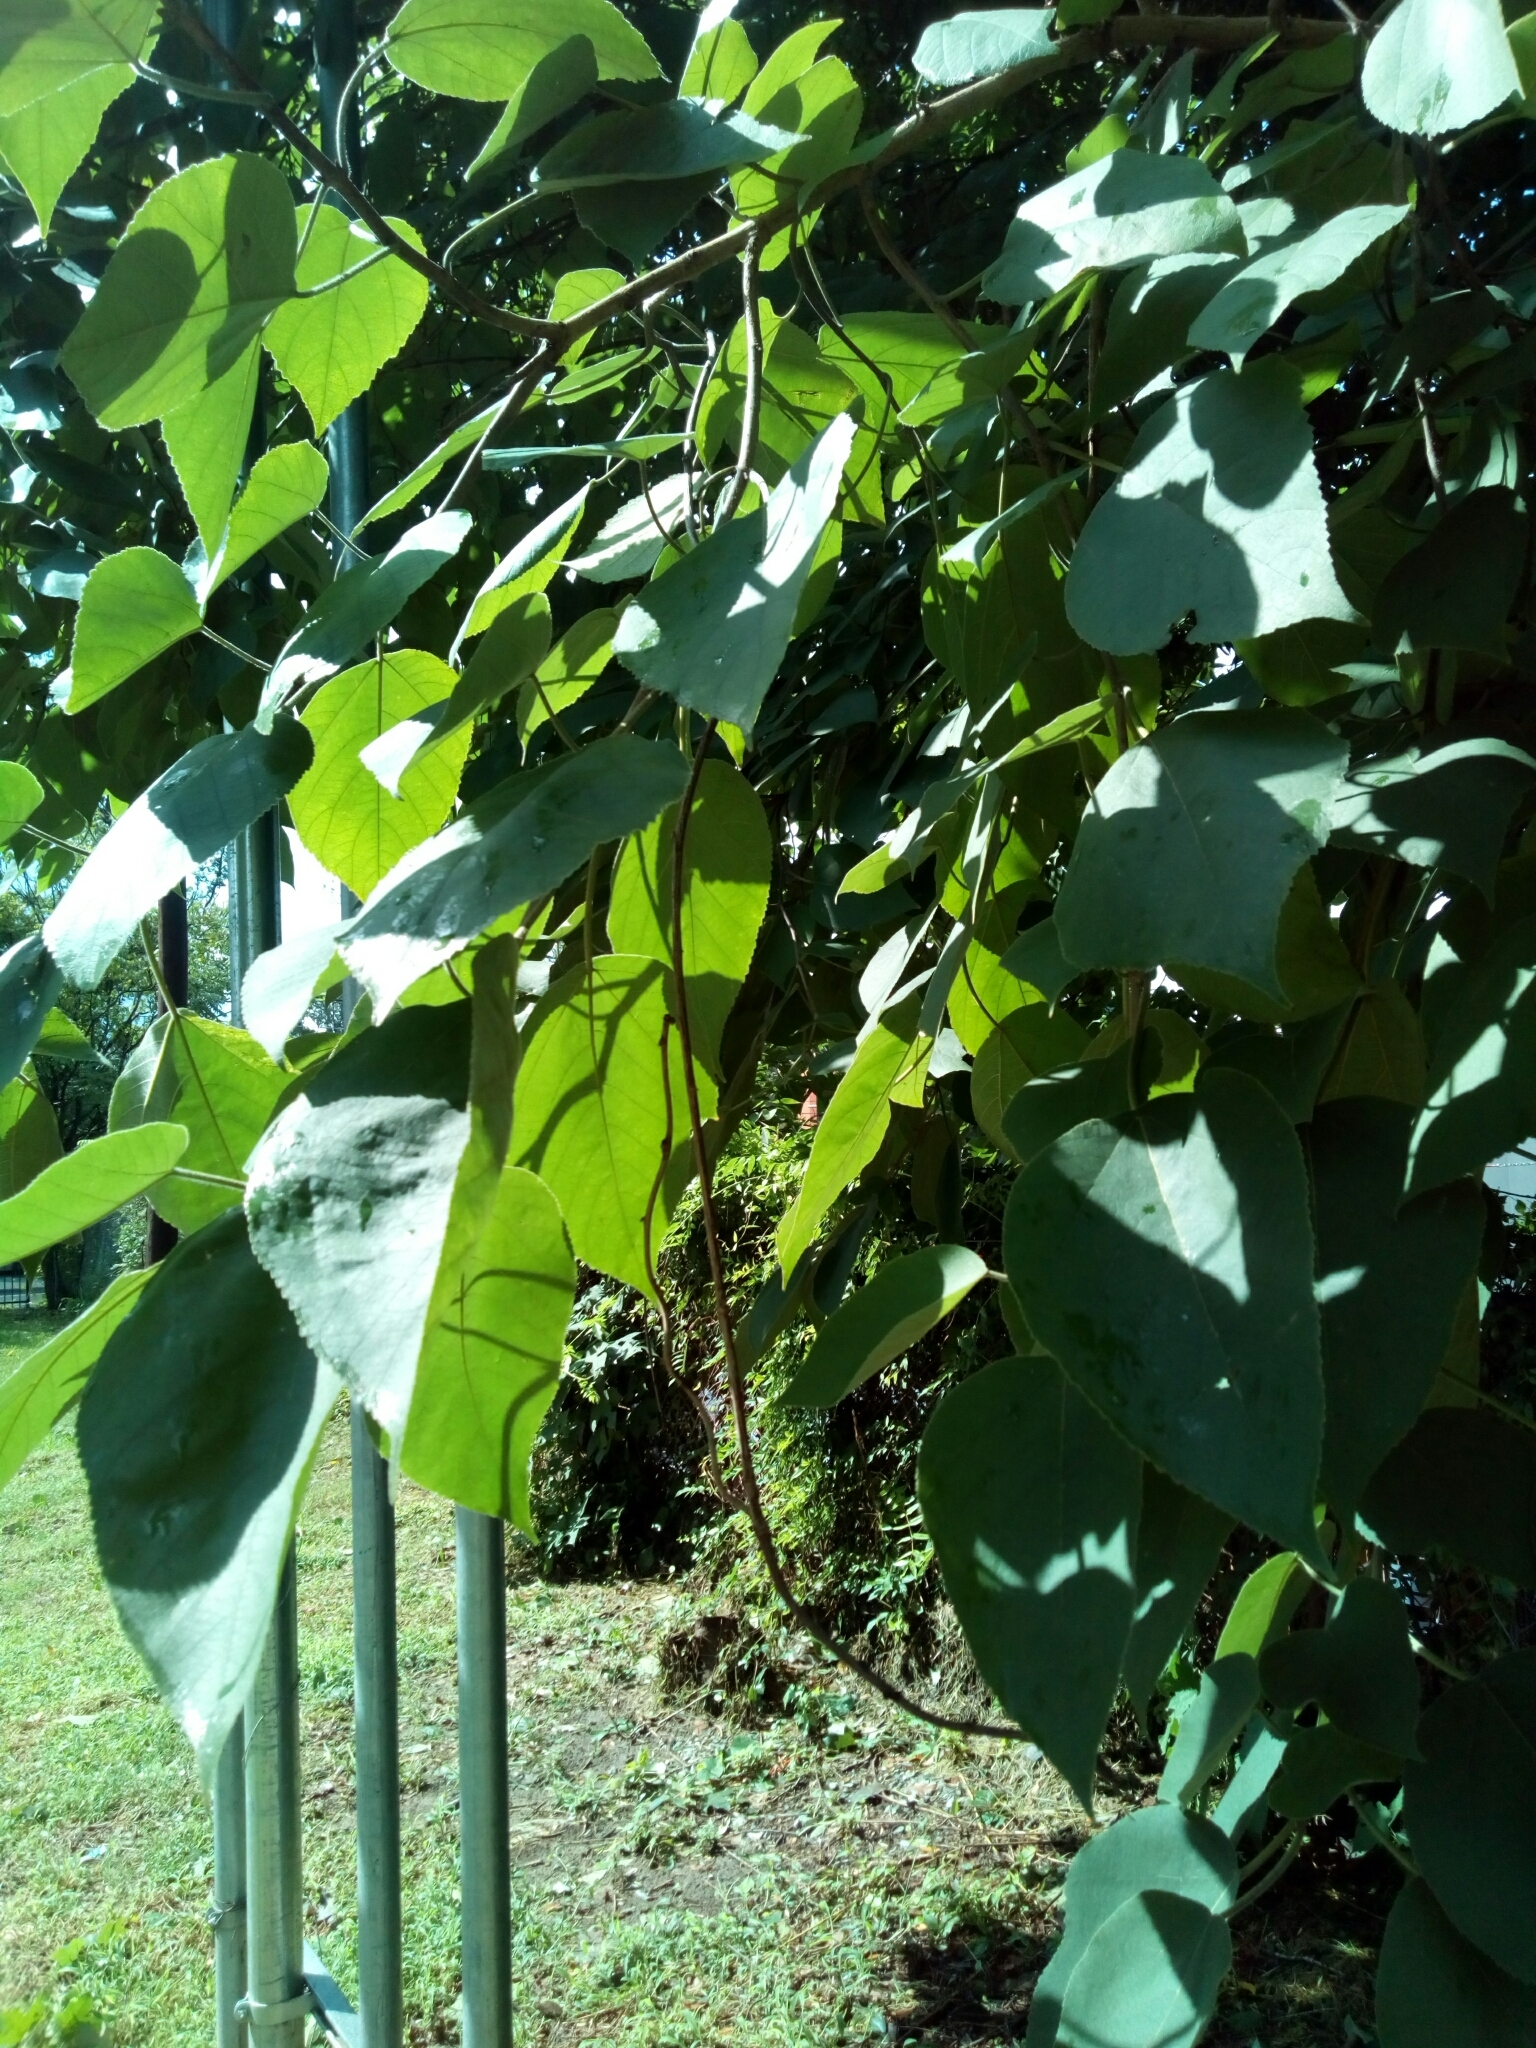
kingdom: Plantae
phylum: Tracheophyta
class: Magnoliopsida
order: Rosales
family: Moraceae
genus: Broussonetia
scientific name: Broussonetia papyrifera
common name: Paper mulberry
